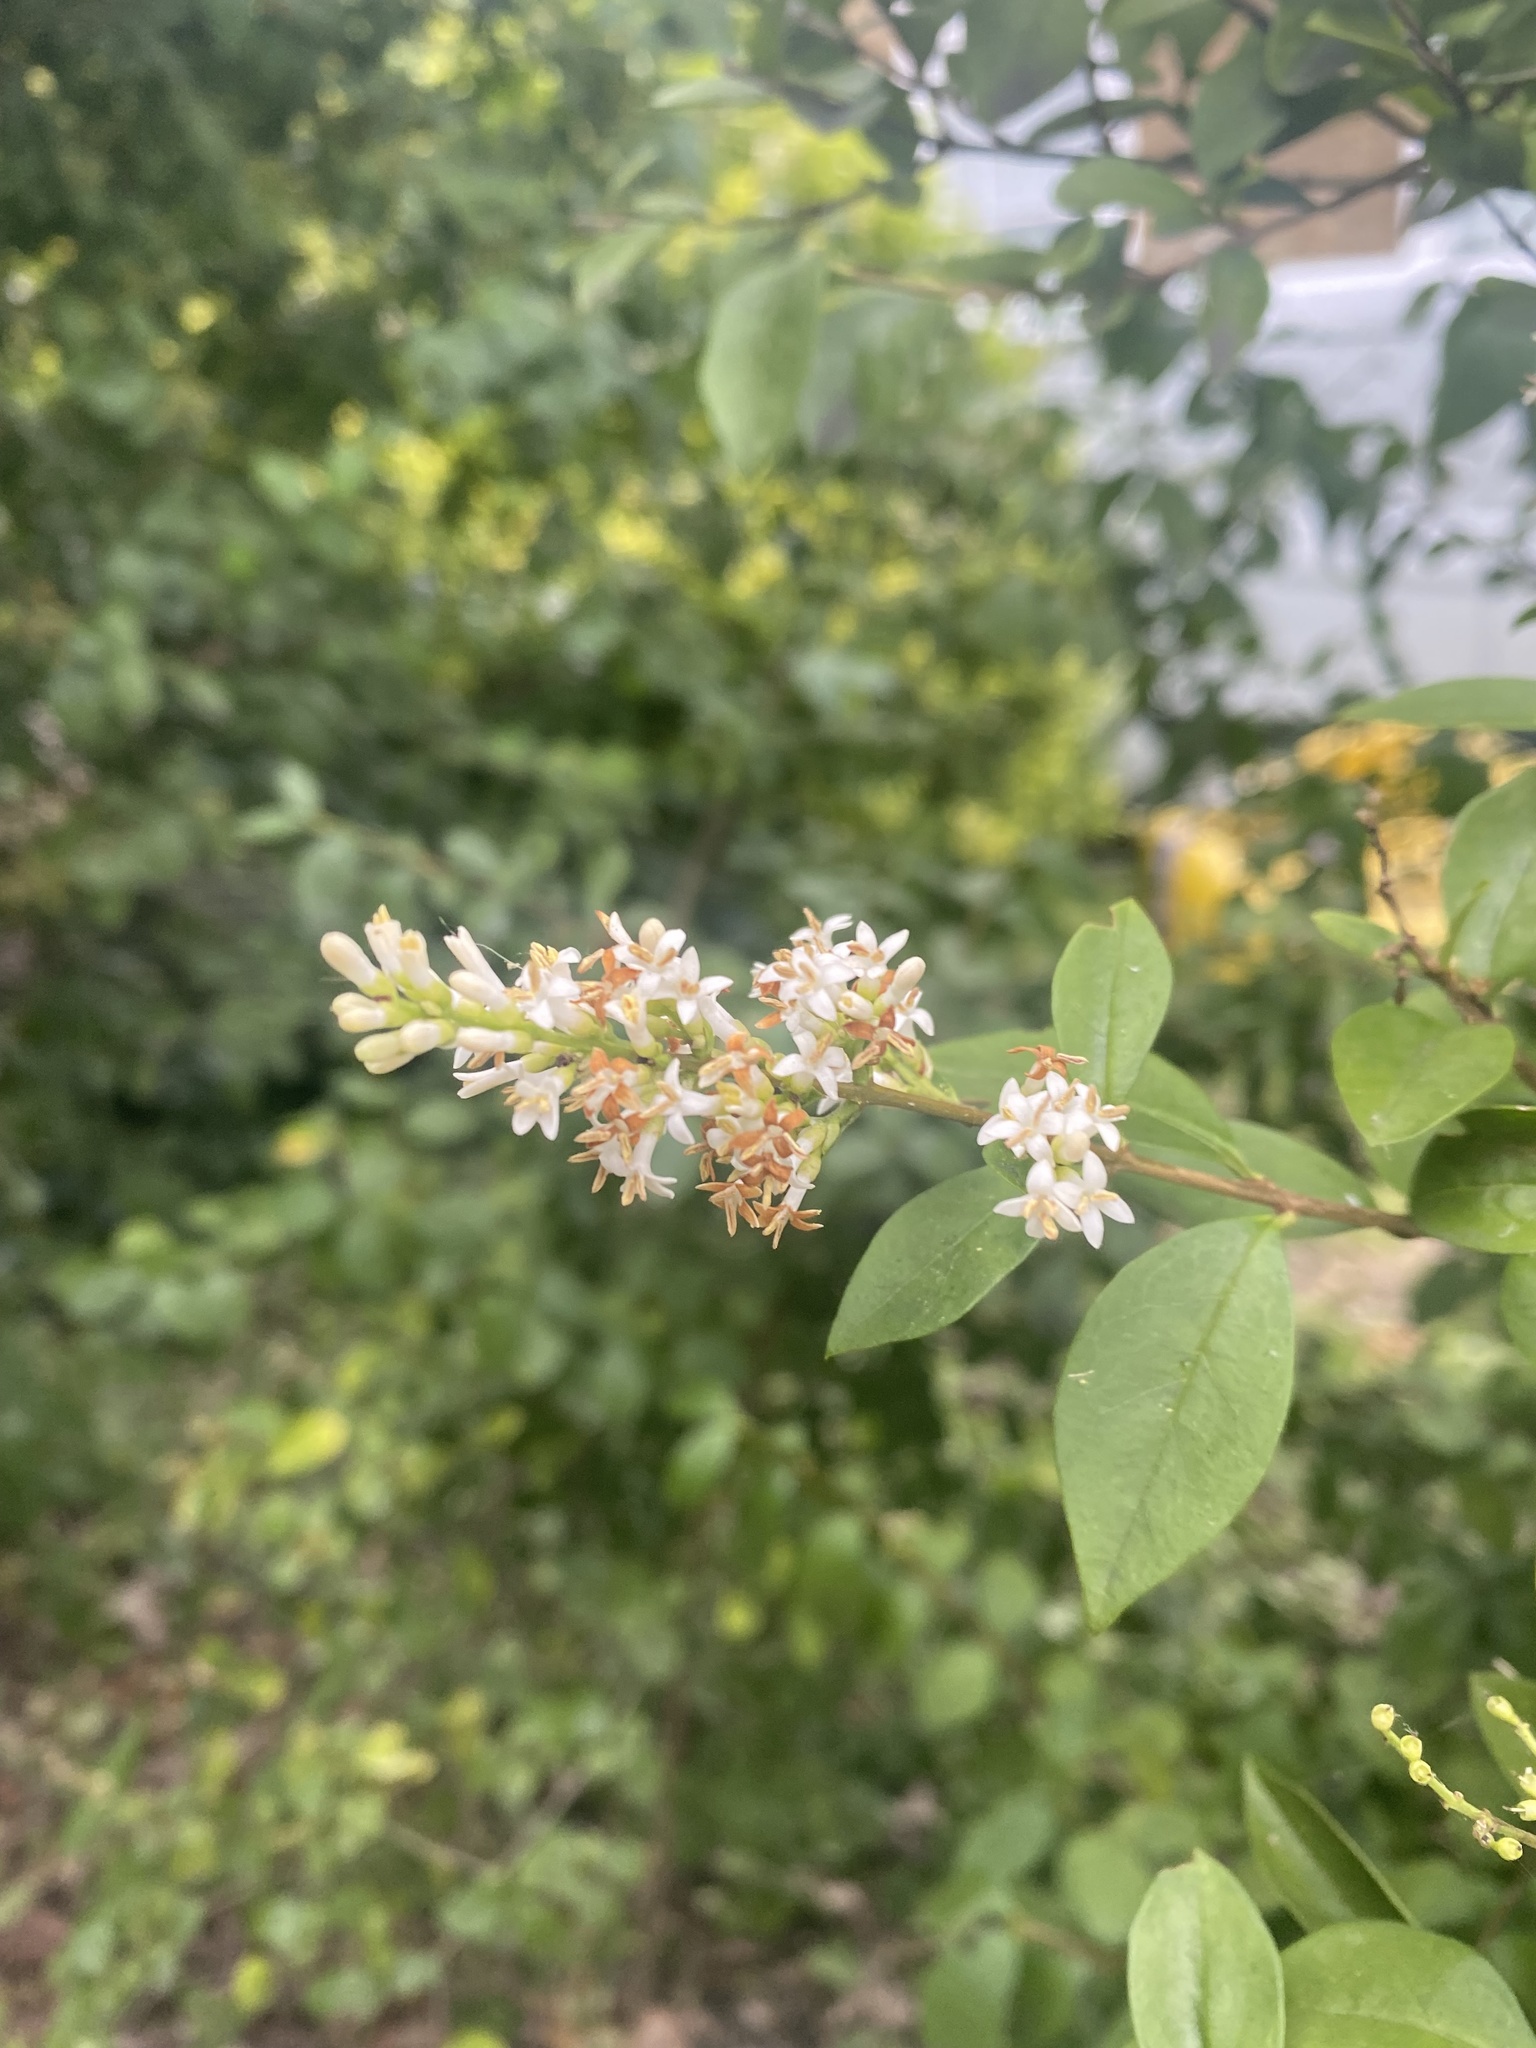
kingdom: Plantae
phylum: Tracheophyta
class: Magnoliopsida
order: Lamiales
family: Oleaceae
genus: Ligustrum
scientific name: Ligustrum vulgare
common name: Wild privet
